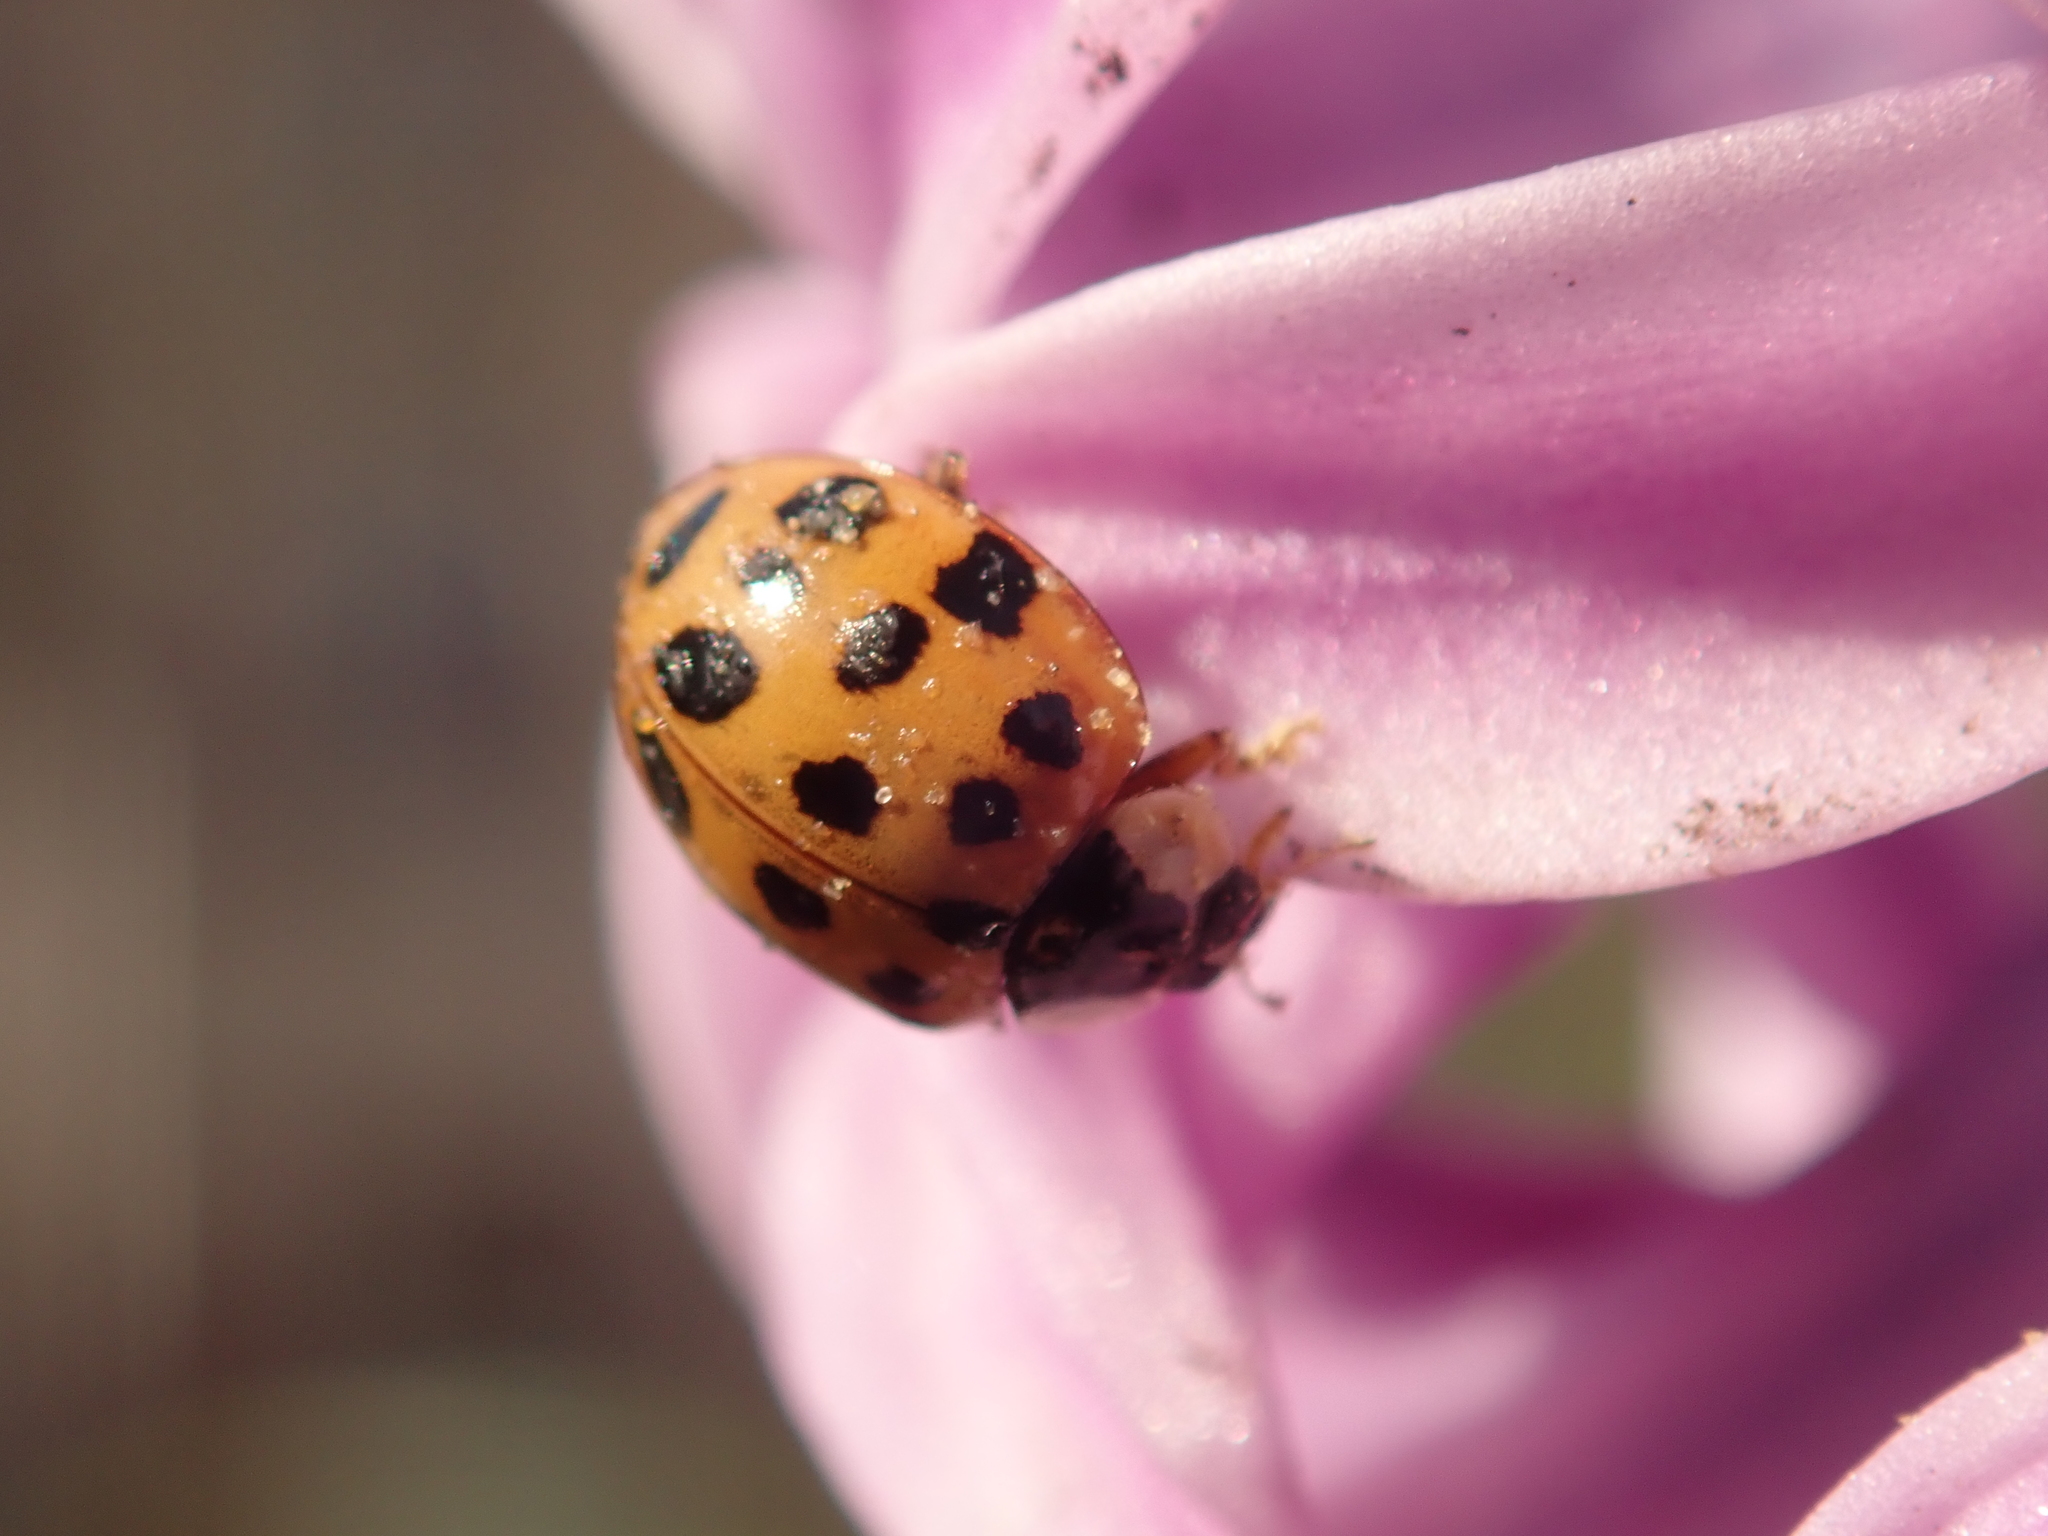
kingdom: Animalia
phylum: Arthropoda
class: Insecta
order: Coleoptera
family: Coccinellidae
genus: Harmonia
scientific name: Harmonia axyridis
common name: Harlequin ladybird
